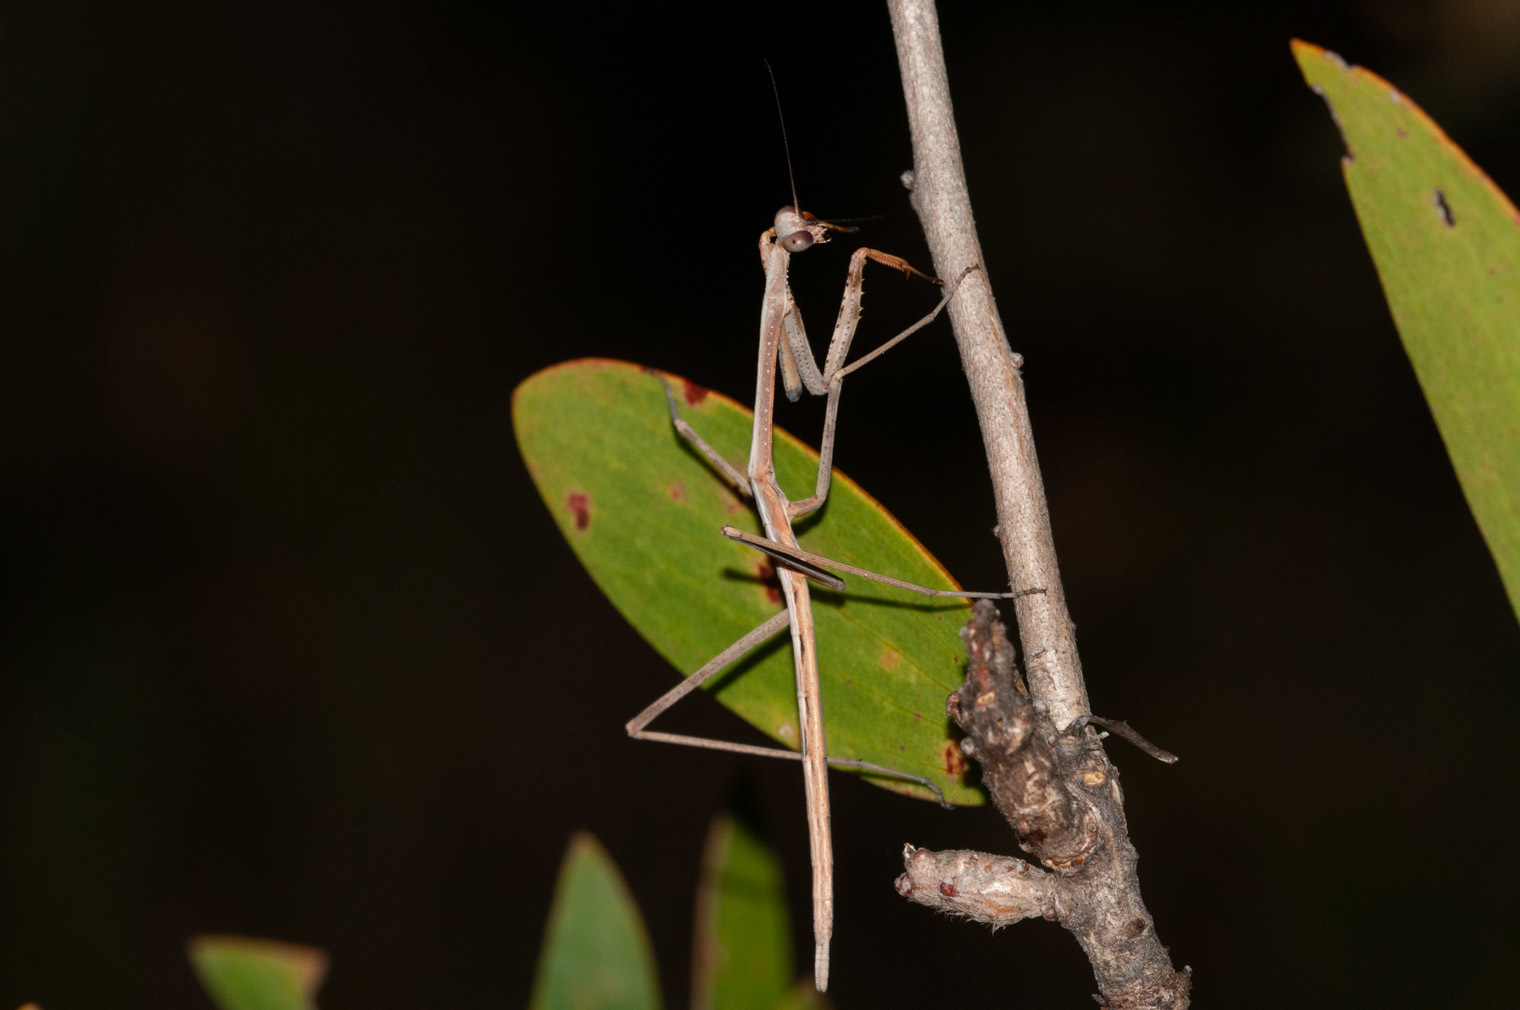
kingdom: Animalia
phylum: Arthropoda
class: Insecta
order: Mantodea
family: Mantidae
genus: Archimantis
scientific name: Archimantis latistyla
